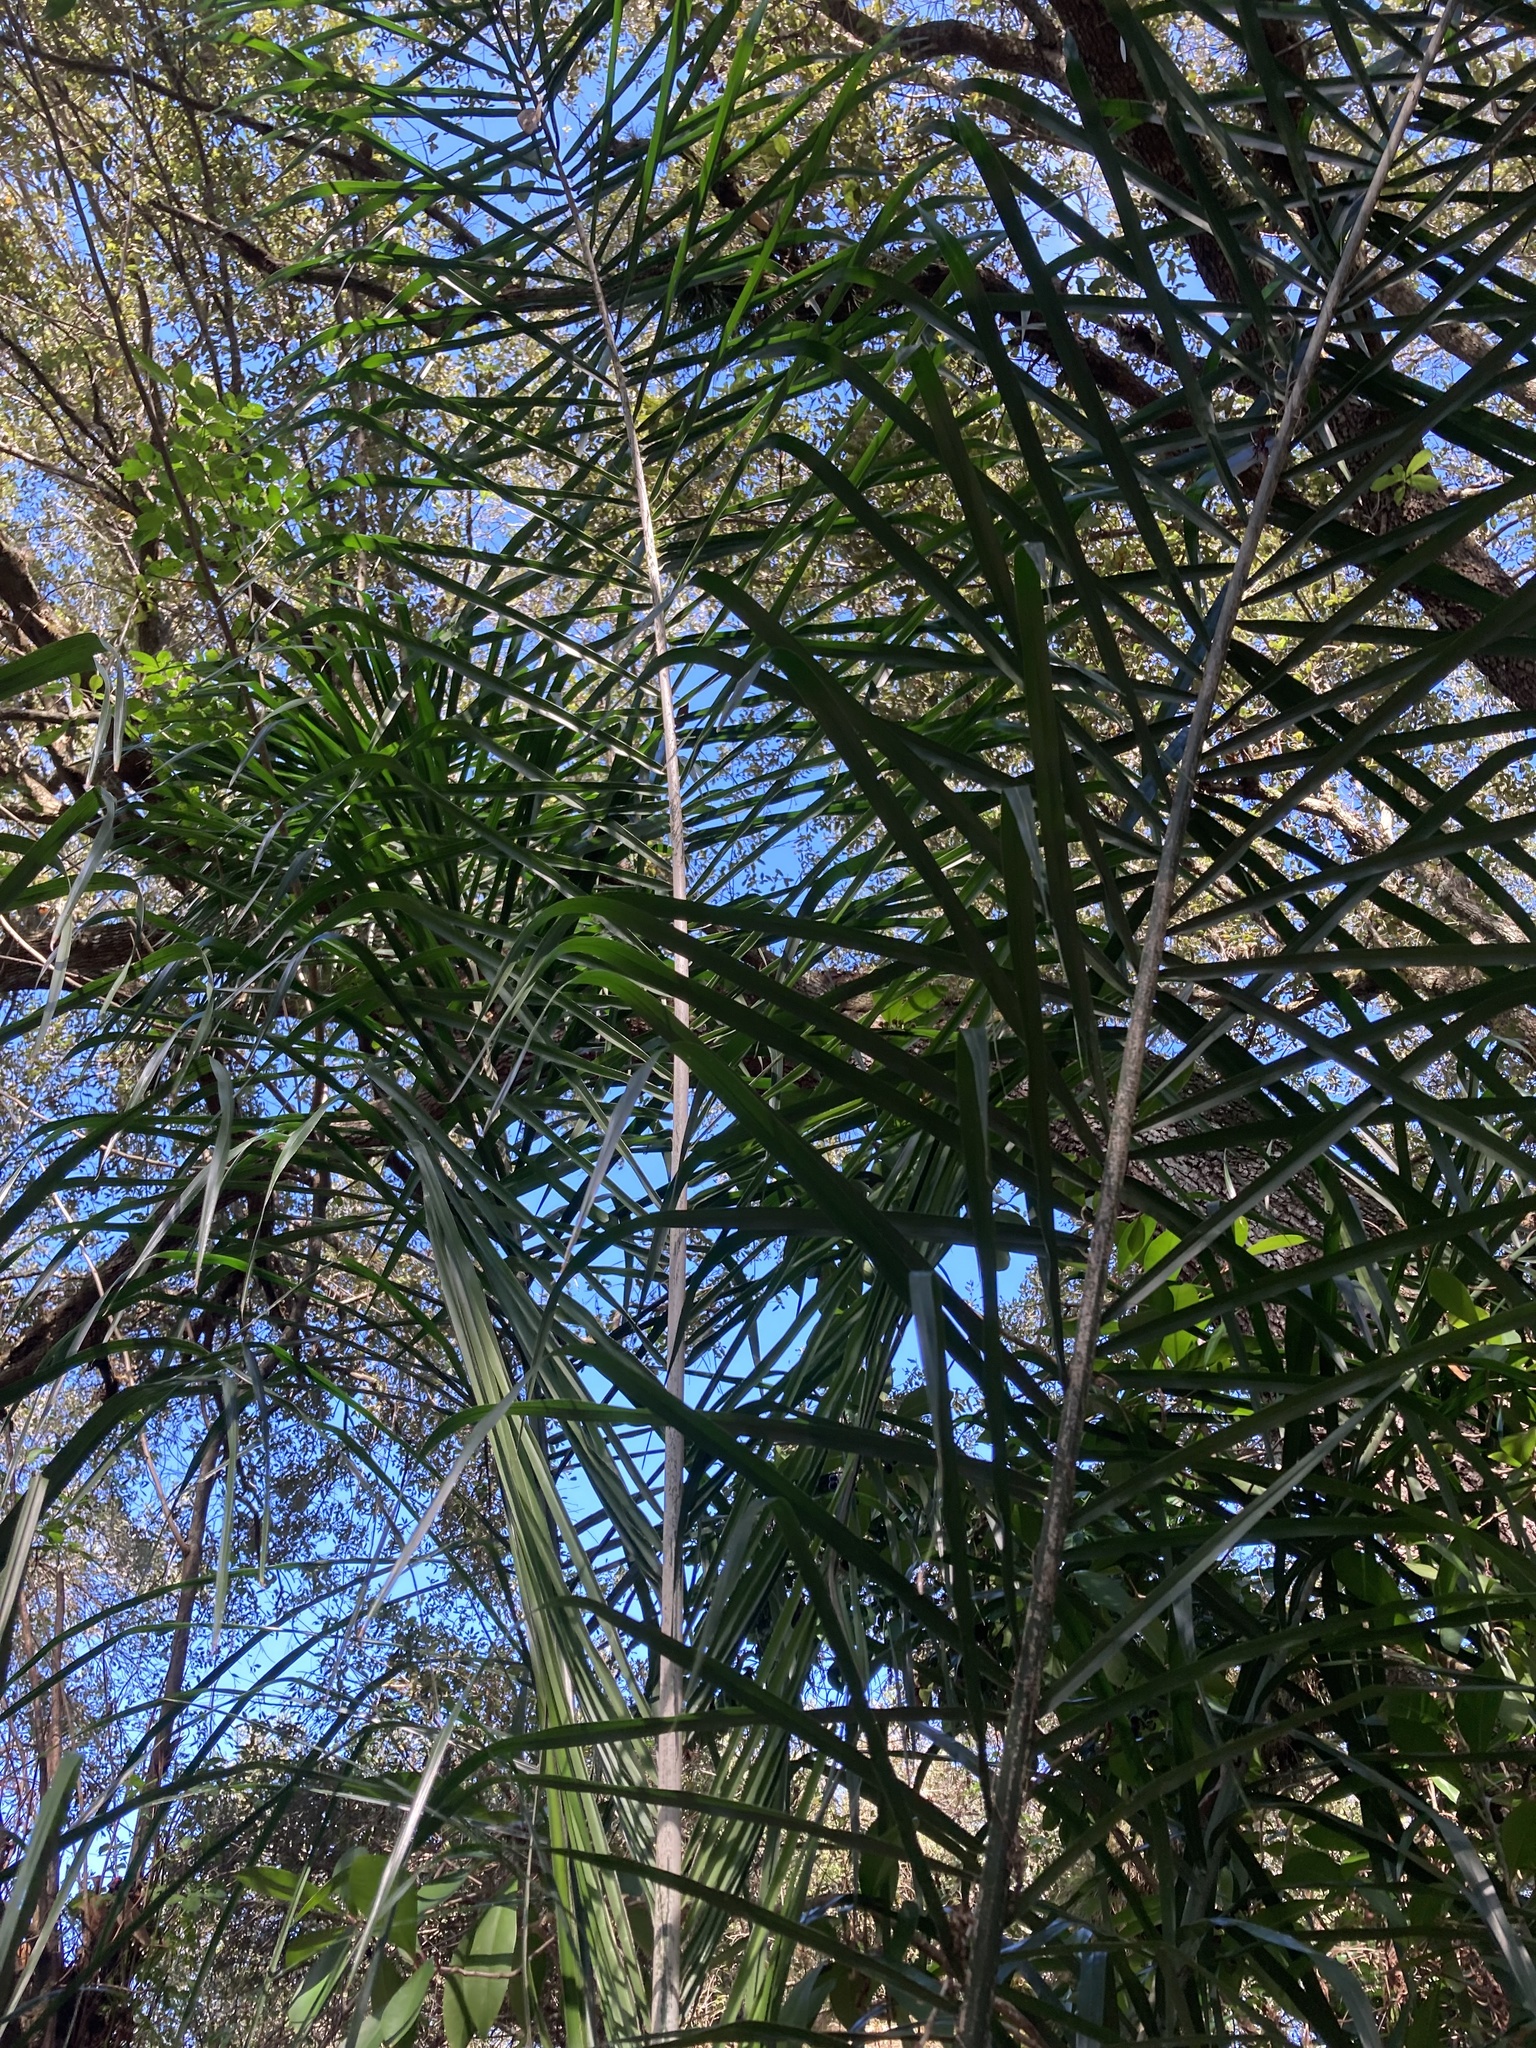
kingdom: Plantae
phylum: Tracheophyta
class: Liliopsida
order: Arecales
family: Arecaceae
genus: Syagrus
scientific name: Syagrus romanzoffiana
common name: Queen palm
